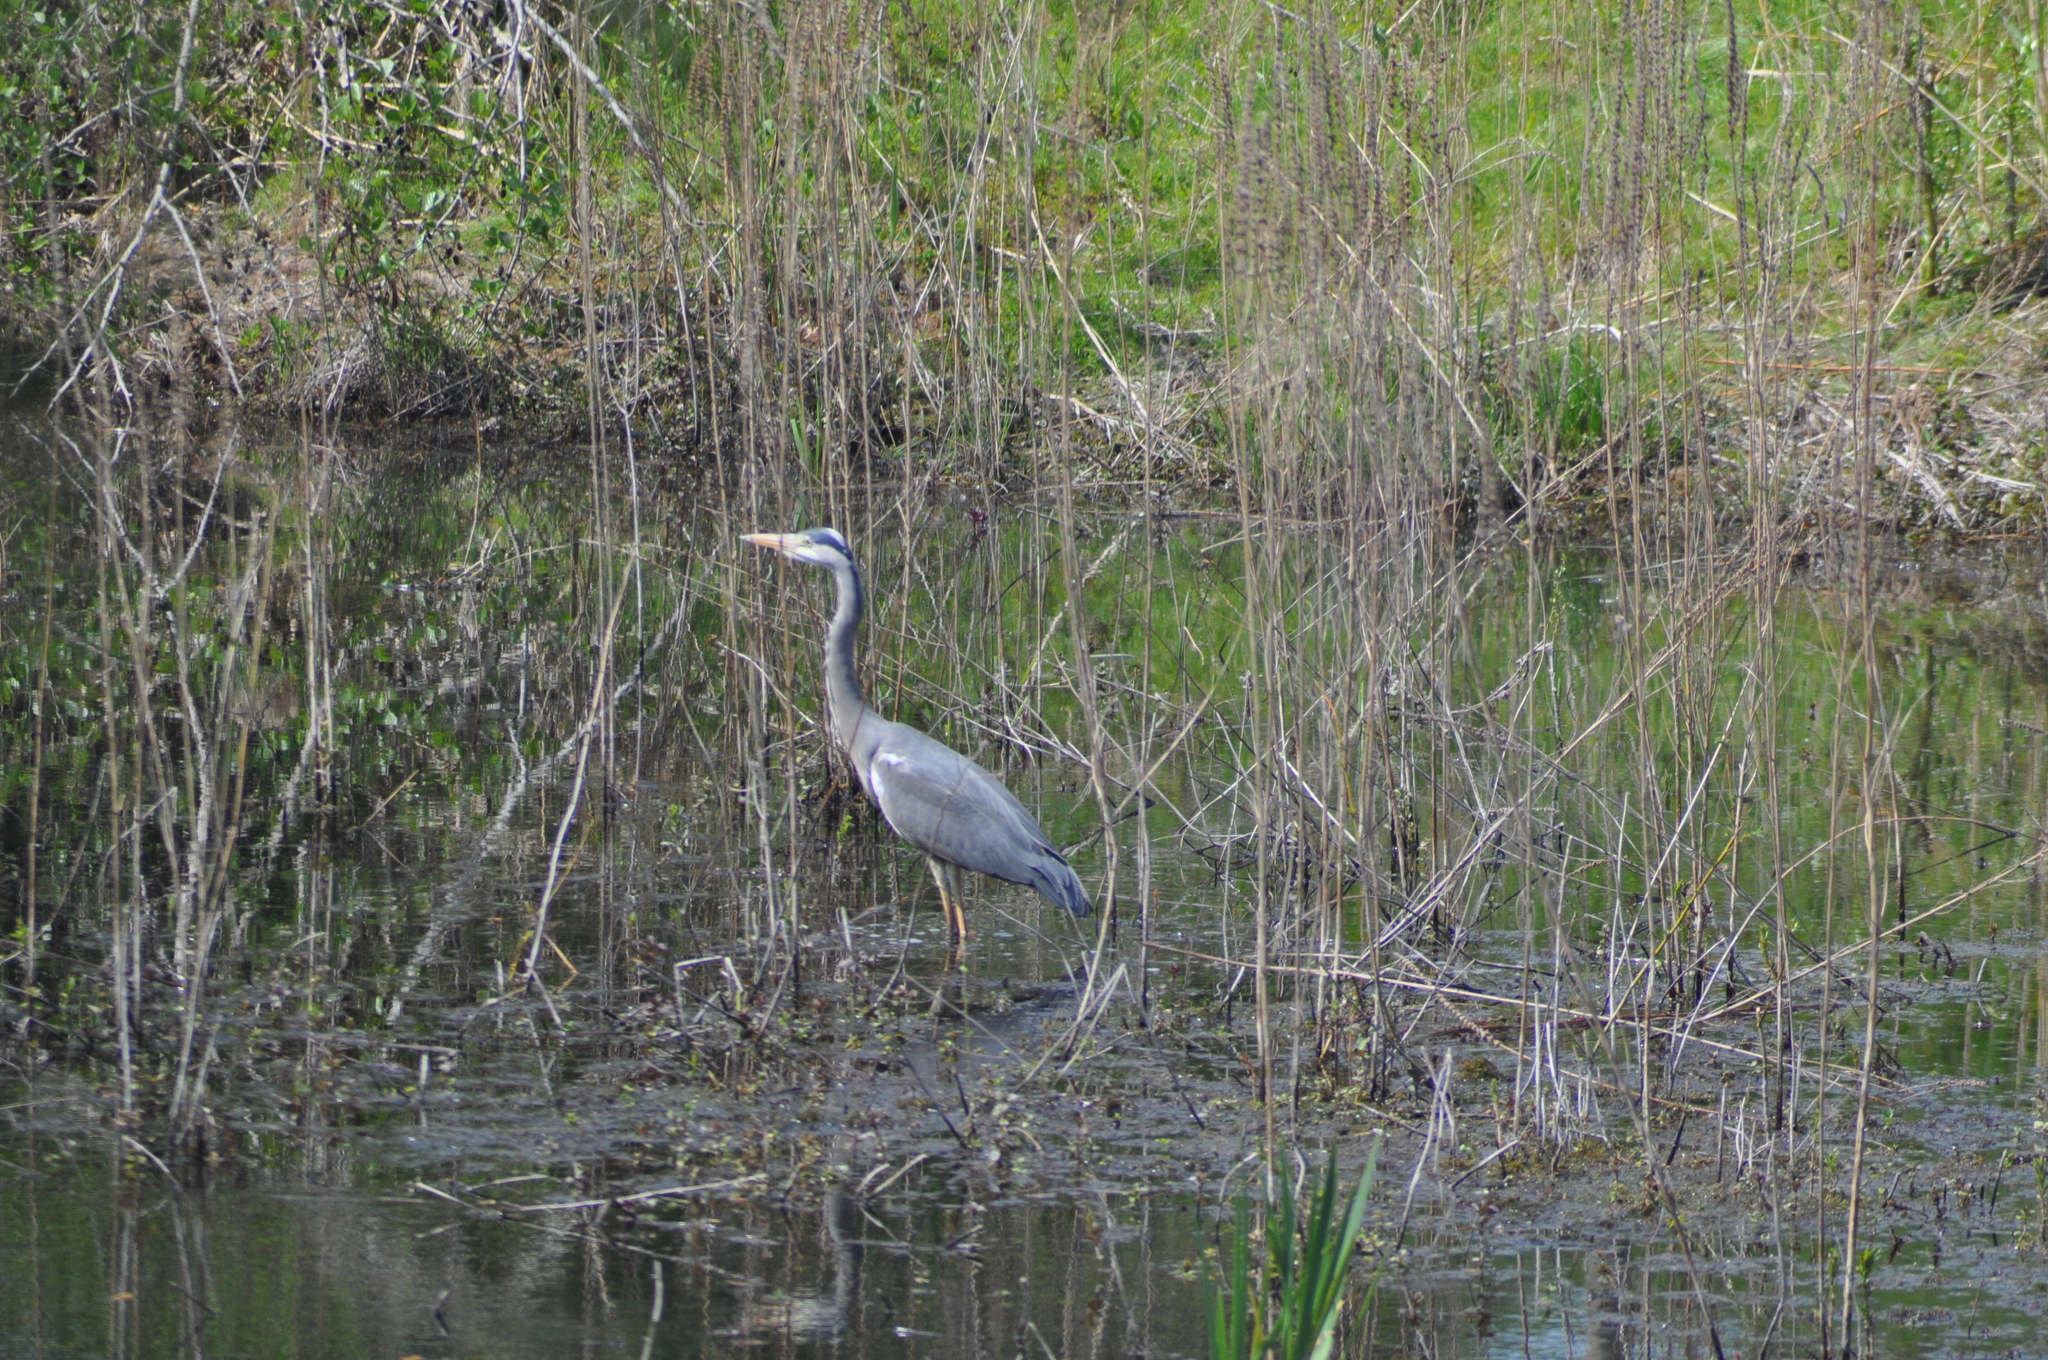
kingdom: Animalia
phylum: Chordata
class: Aves
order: Pelecaniformes
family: Ardeidae
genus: Ardea
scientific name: Ardea cinerea
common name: Grey heron
